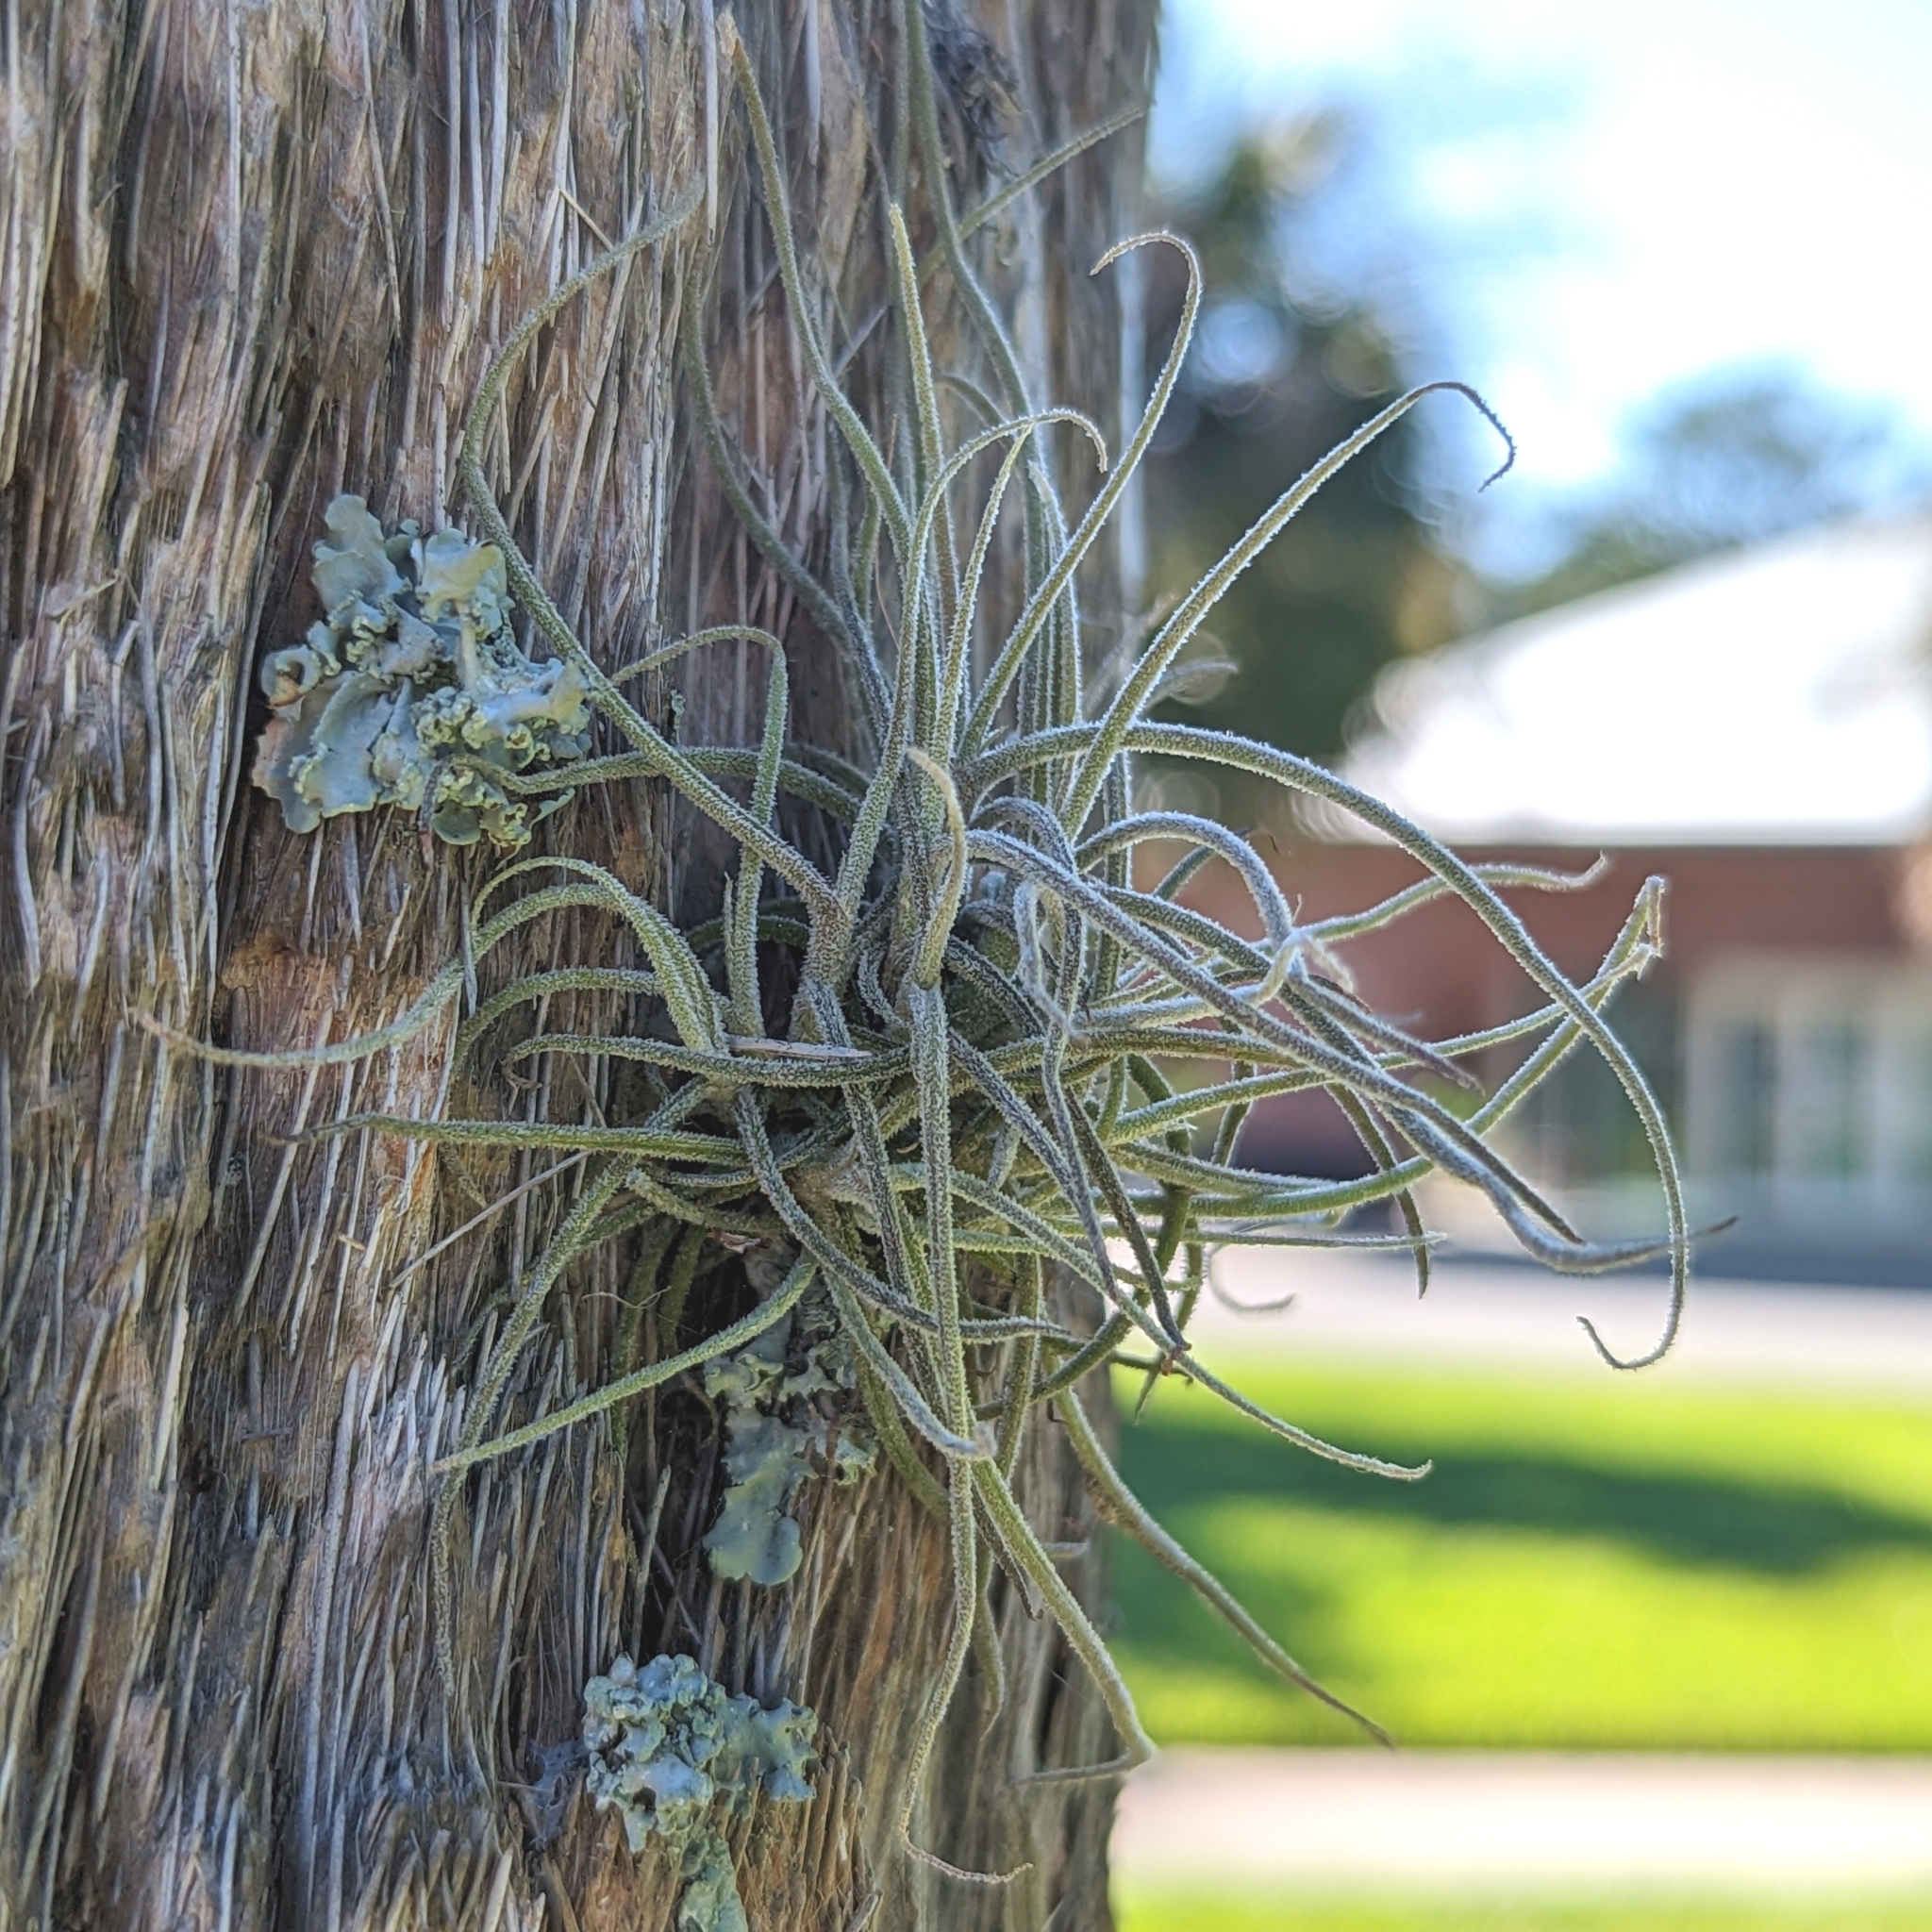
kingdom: Plantae
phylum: Tracheophyta
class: Liliopsida
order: Poales
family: Bromeliaceae
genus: Tillandsia
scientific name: Tillandsia recurvata
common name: Small ballmoss
